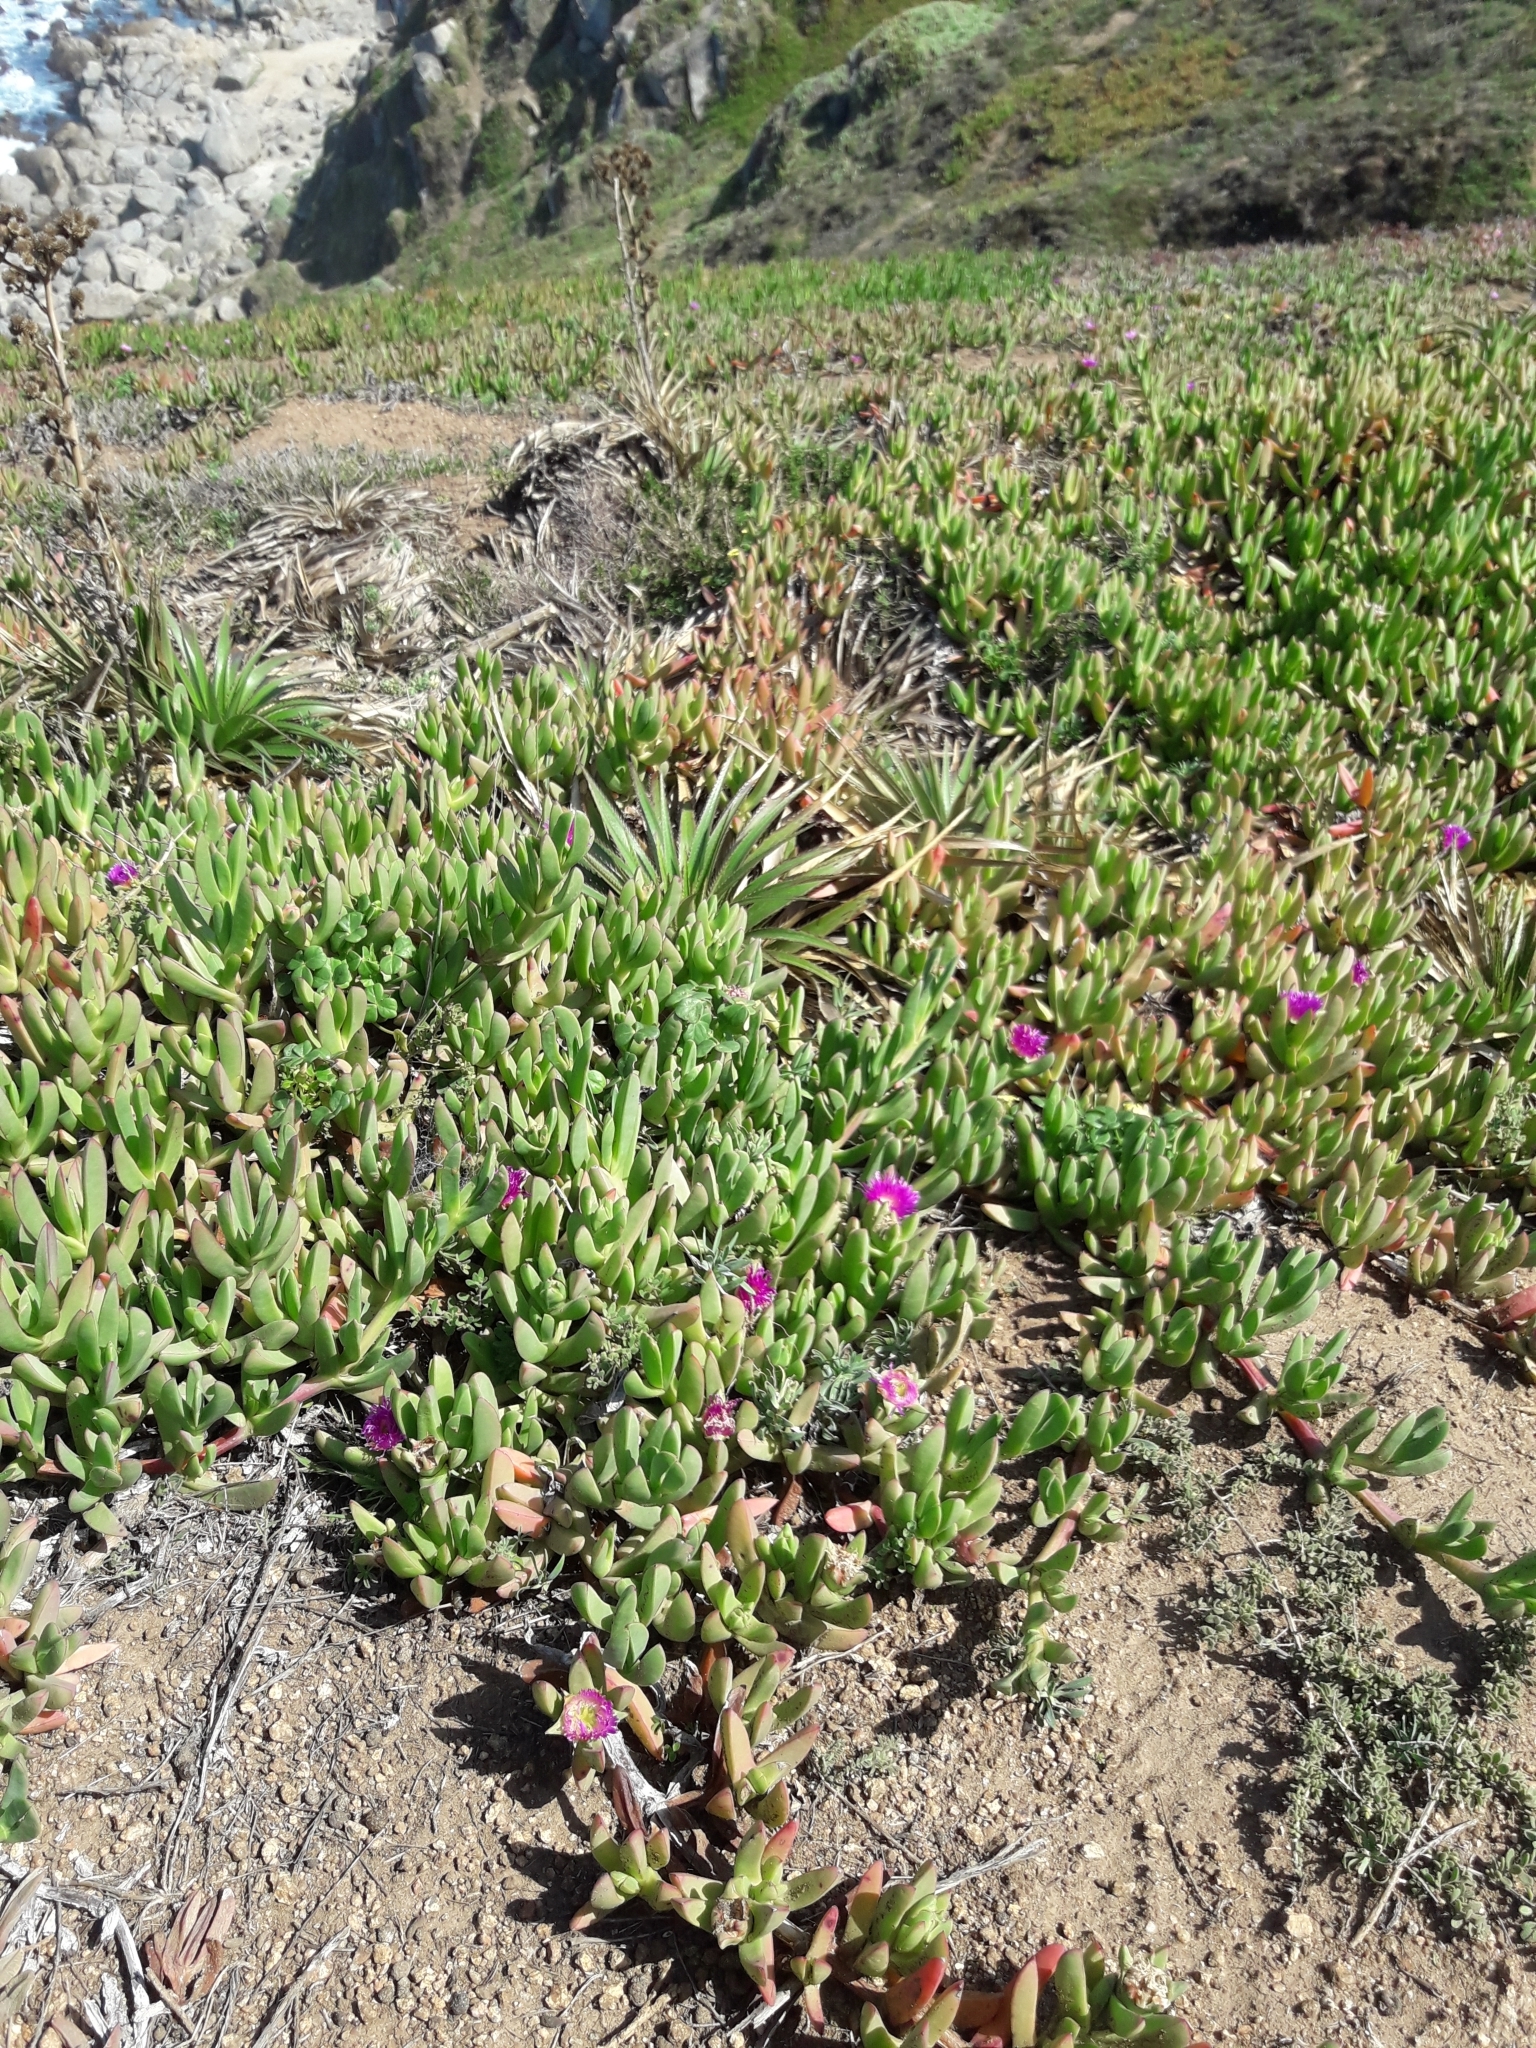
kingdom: Plantae
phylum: Tracheophyta
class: Magnoliopsida
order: Caryophyllales
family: Aizoaceae
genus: Carpobrotus
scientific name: Carpobrotus chilensis
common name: Sea fig
